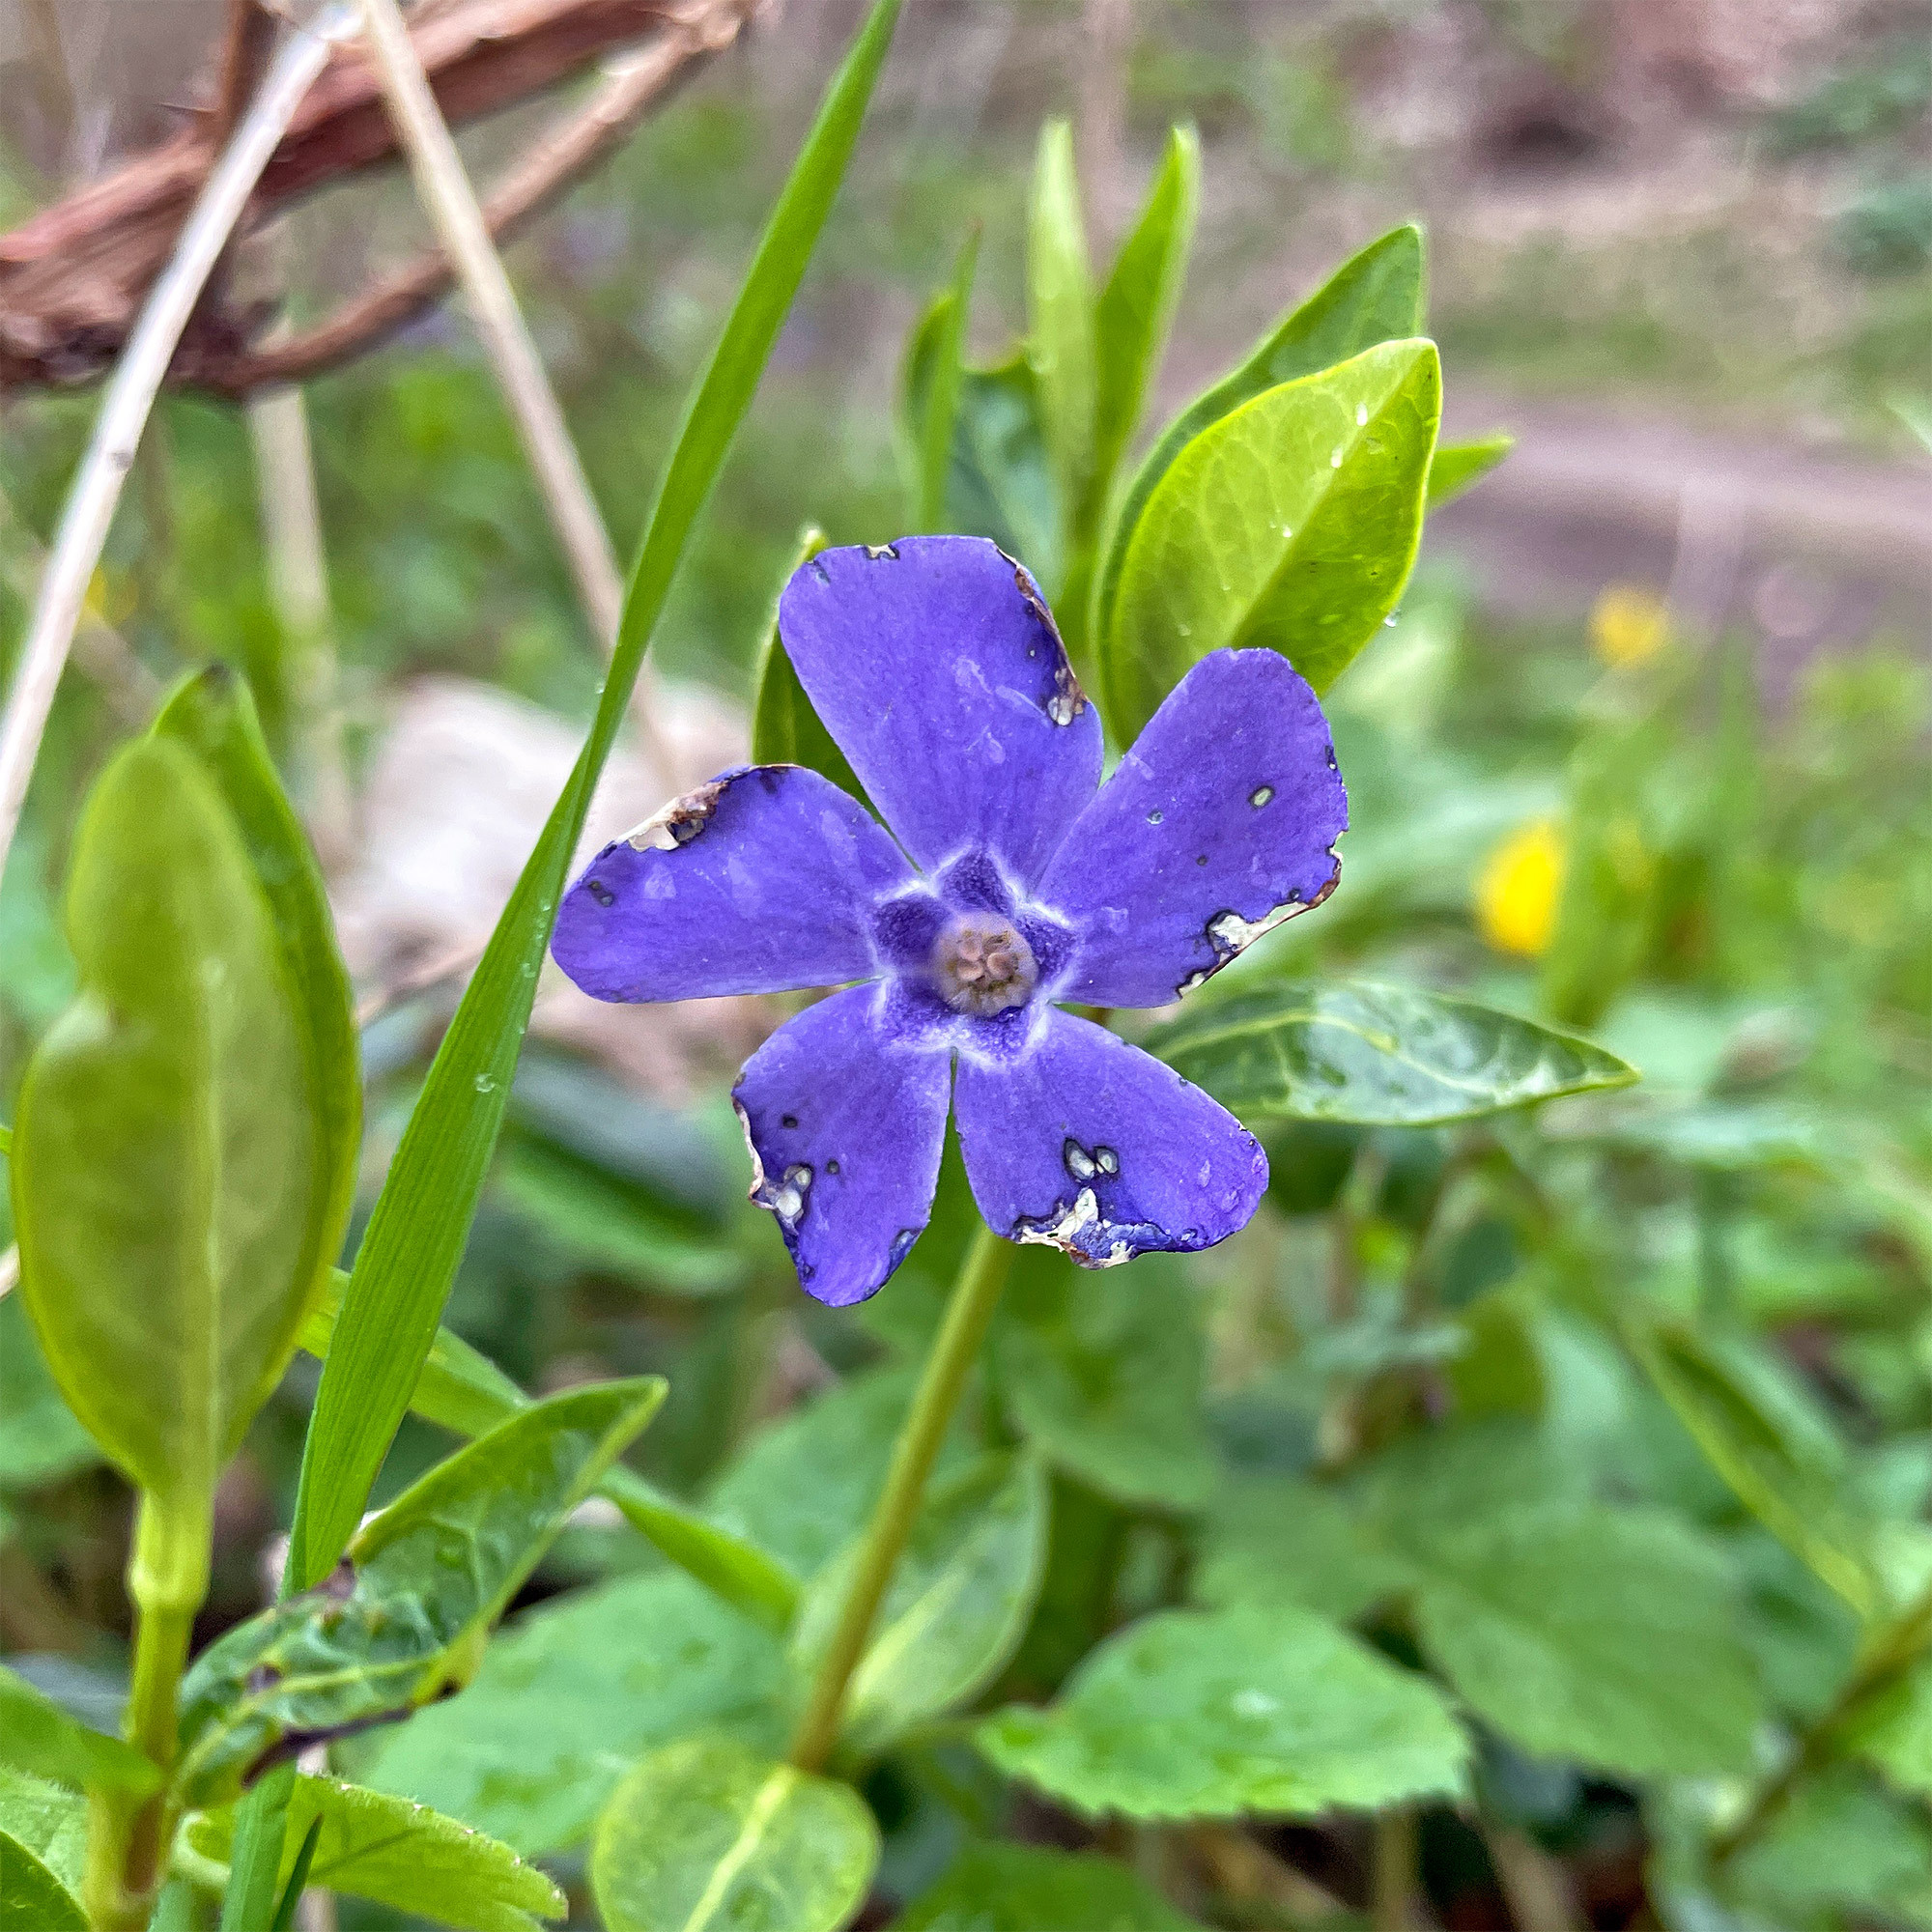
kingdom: Plantae
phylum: Tracheophyta
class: Magnoliopsida
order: Gentianales
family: Apocynaceae
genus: Vinca
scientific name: Vinca minor
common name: Lesser periwinkle
